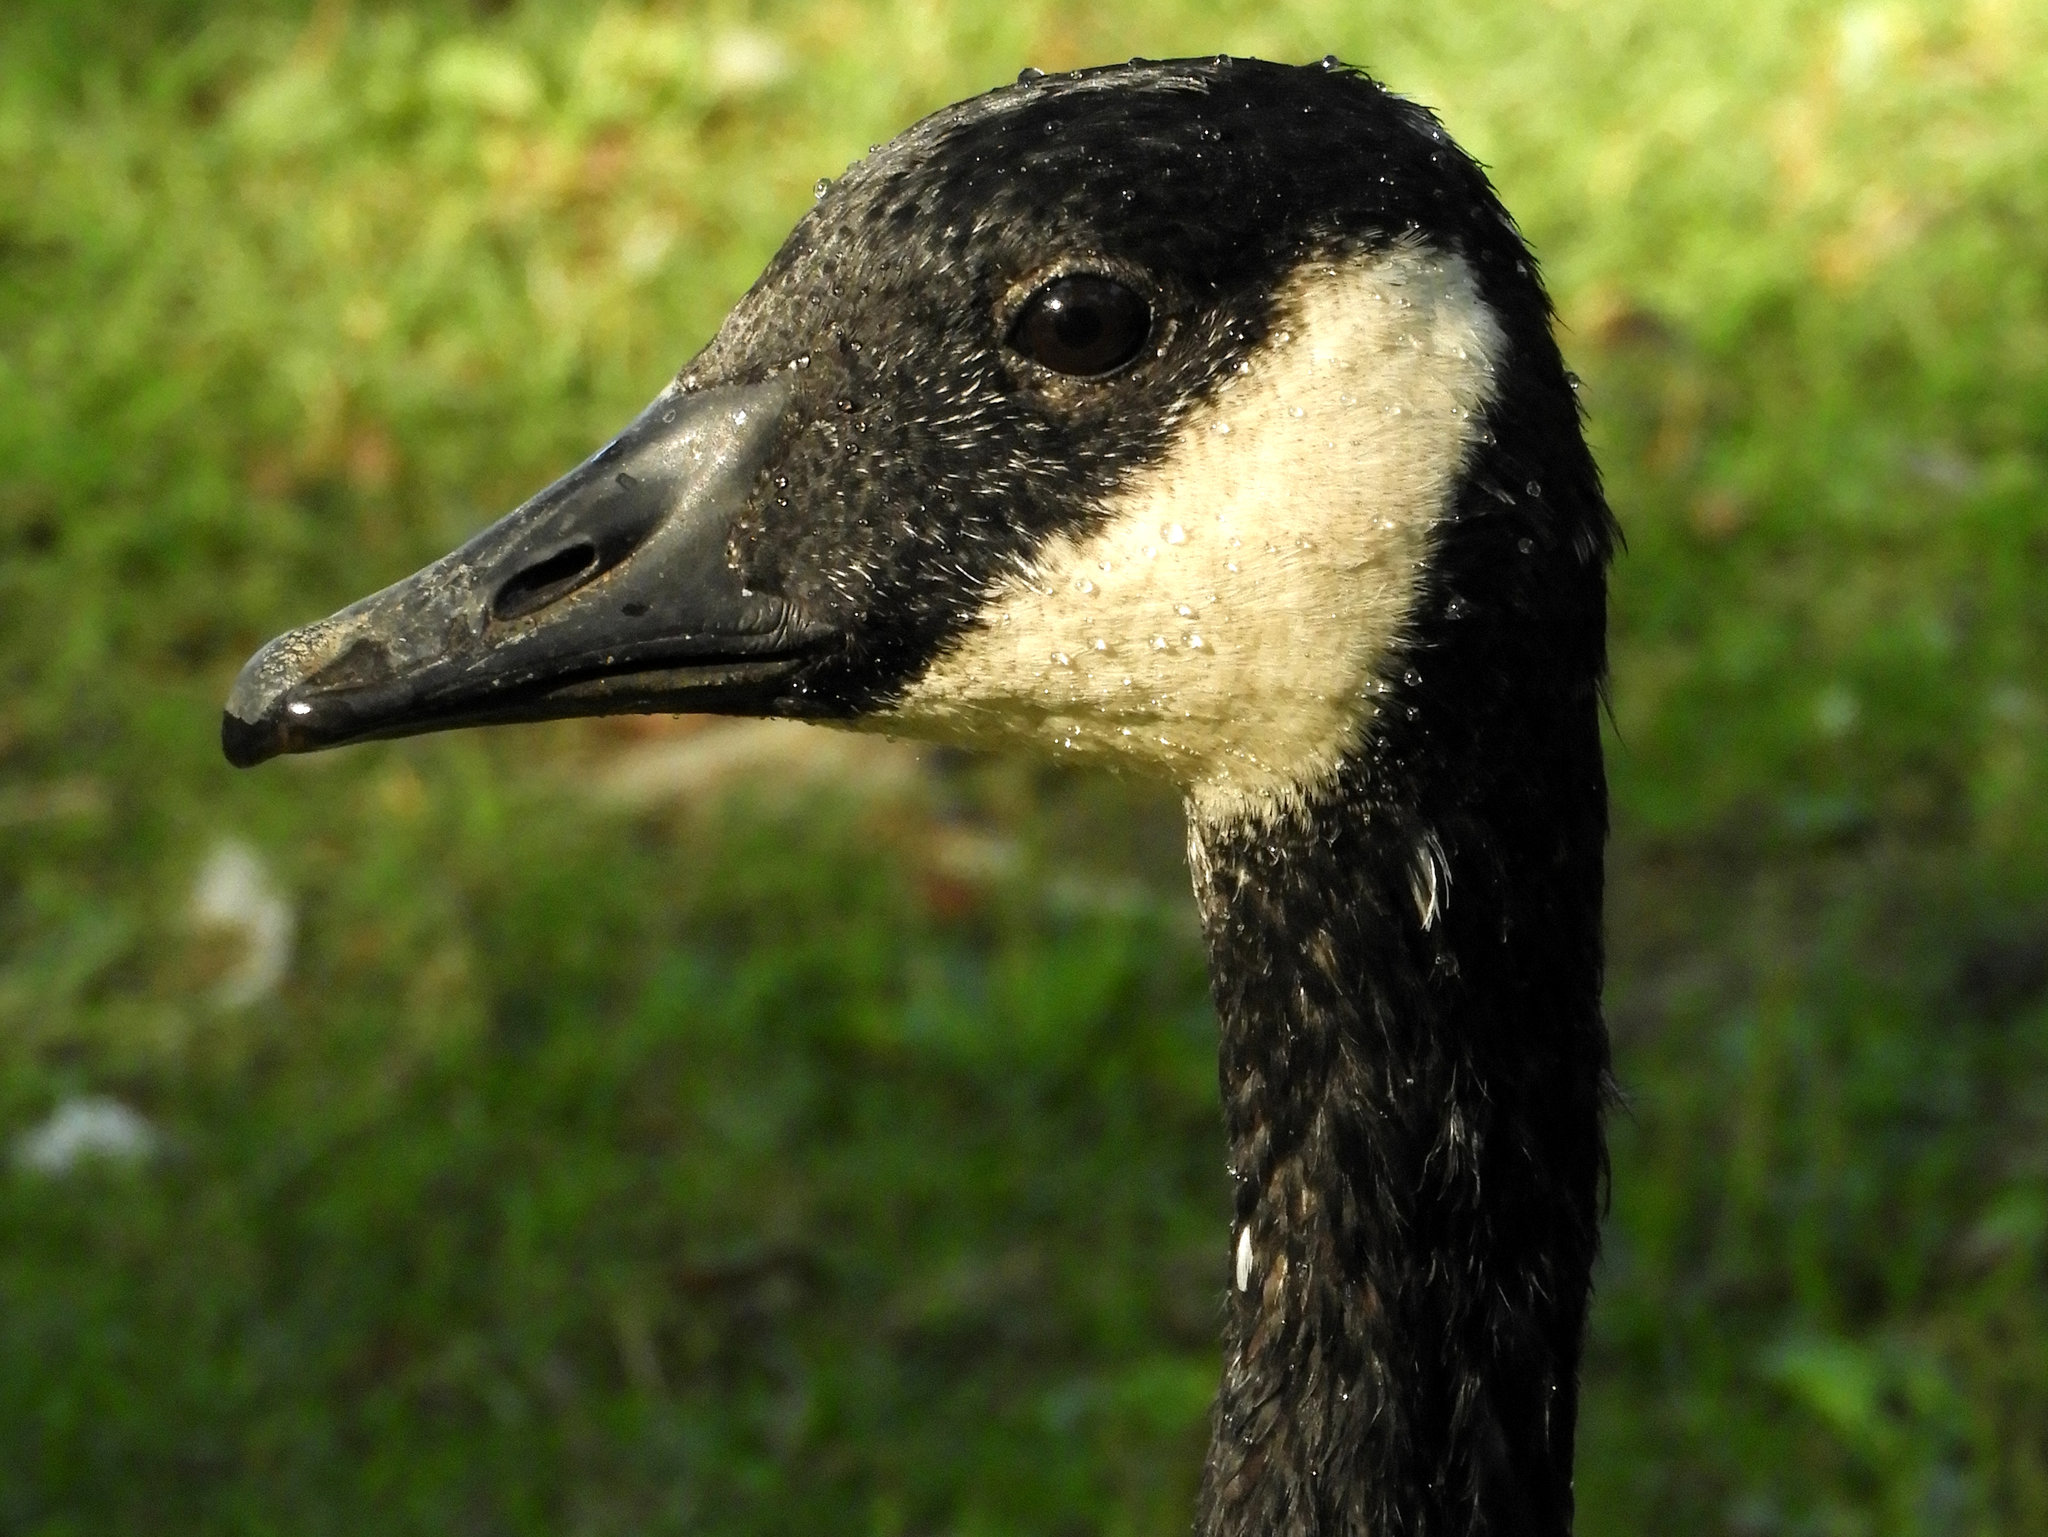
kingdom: Animalia
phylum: Chordata
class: Aves
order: Anseriformes
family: Anatidae
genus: Branta
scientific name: Branta canadensis
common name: Canada goose
